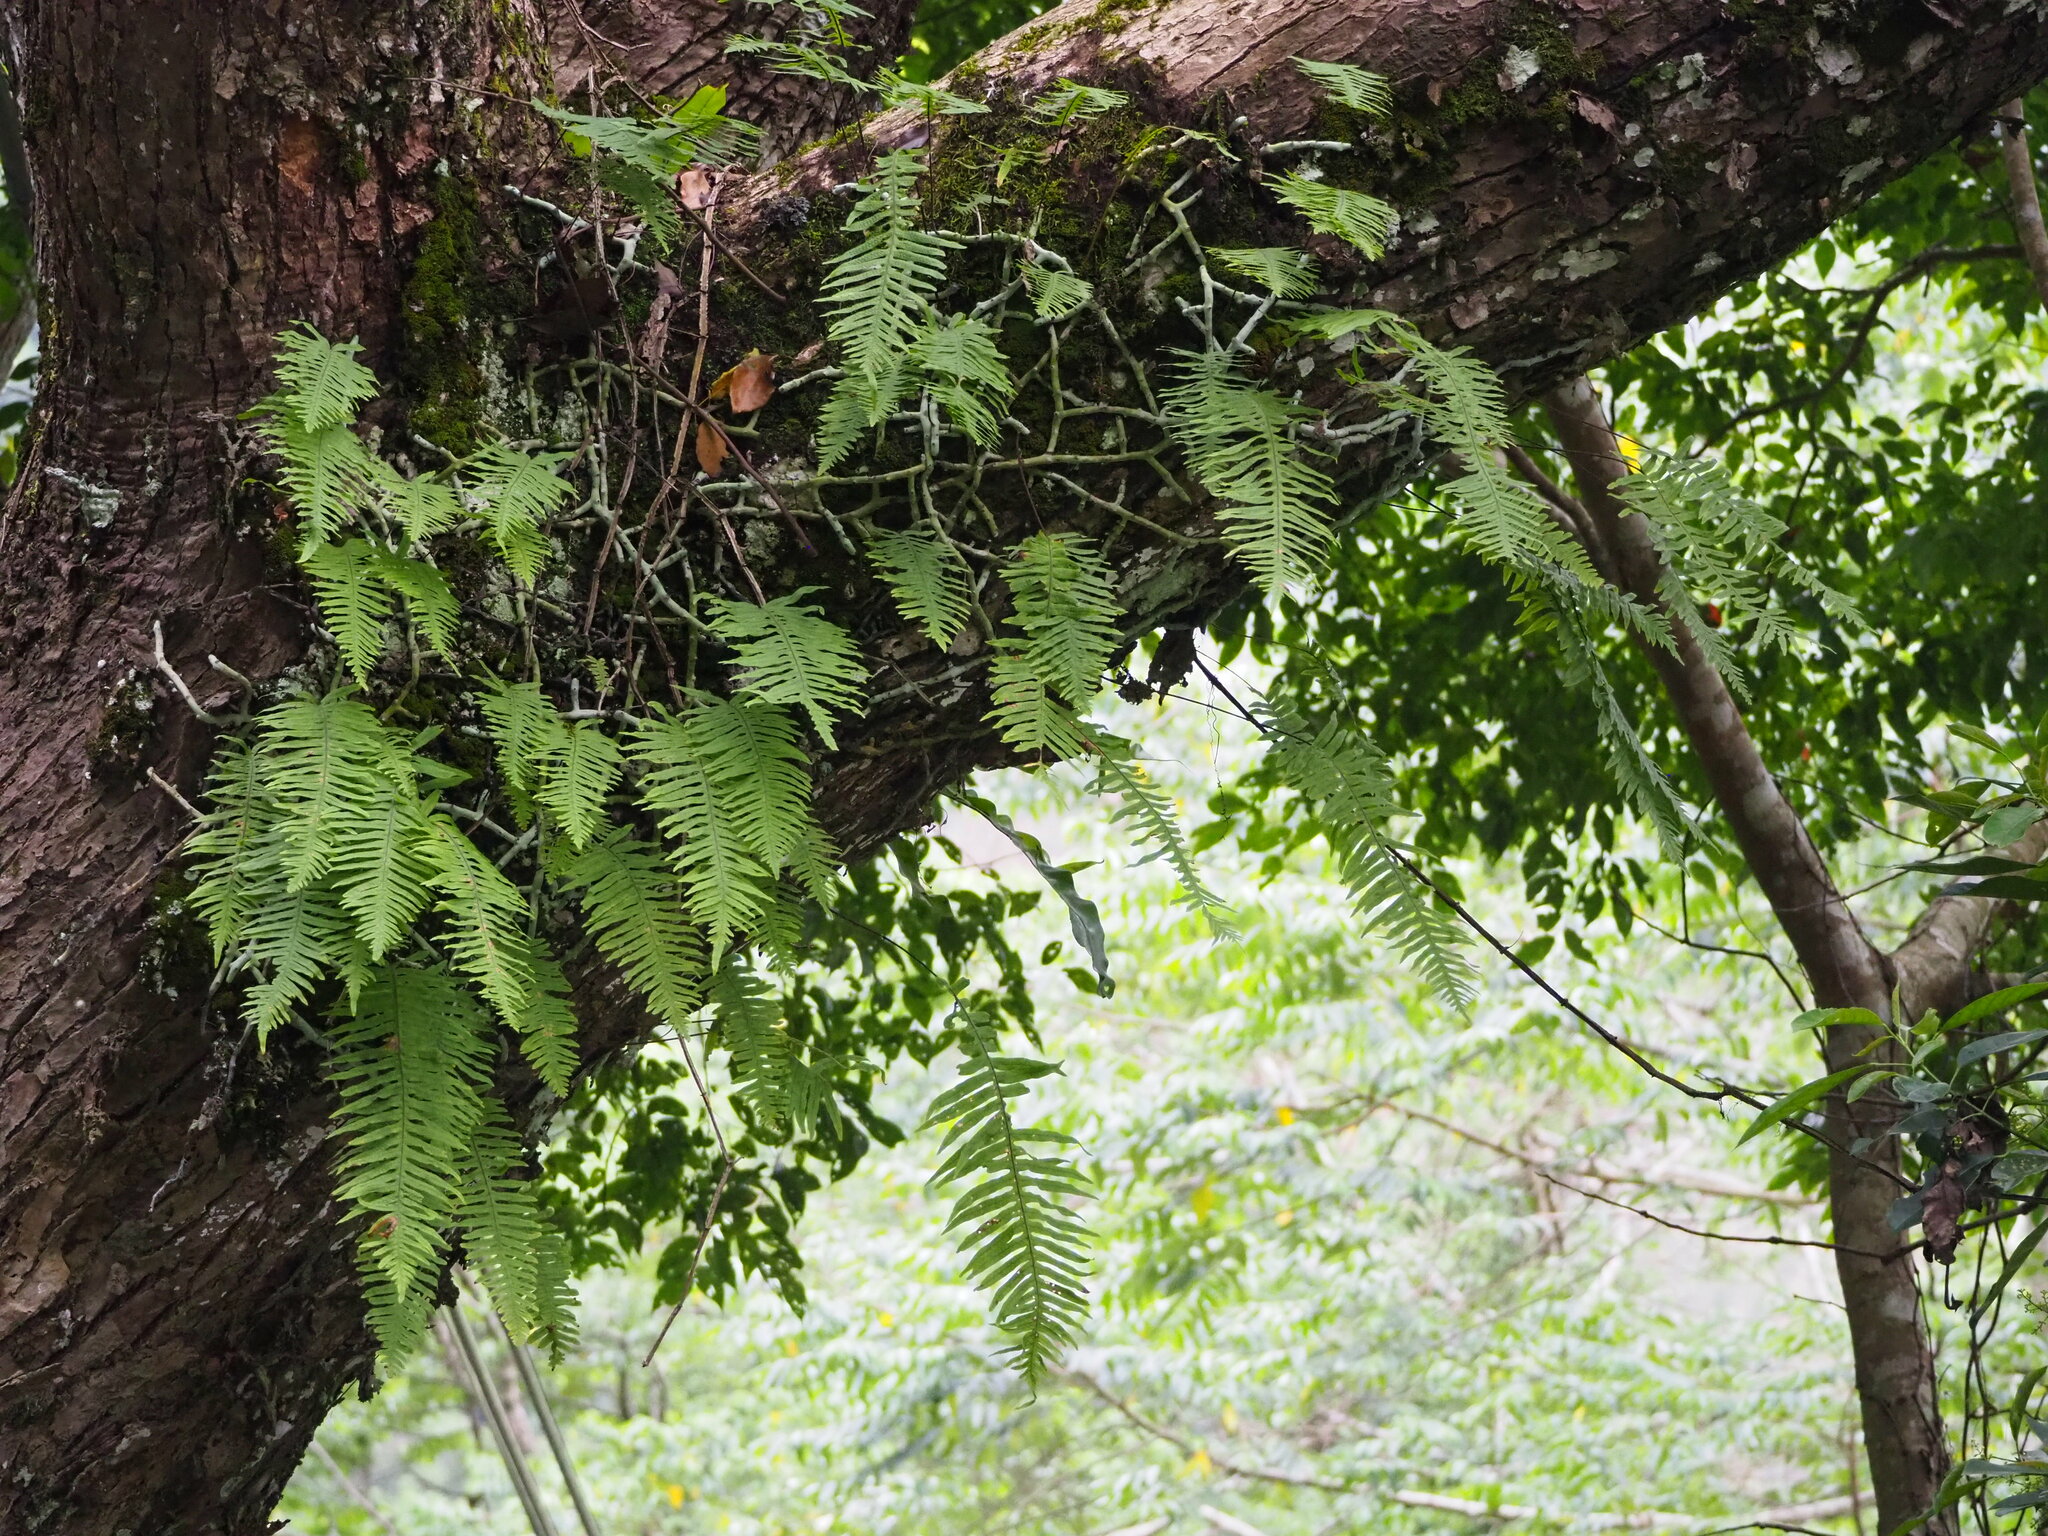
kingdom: Plantae
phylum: Tracheophyta
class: Polypodiopsida
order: Polypodiales
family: Polypodiaceae
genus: Goniophlebium
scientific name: Goniophlebium formosanum
